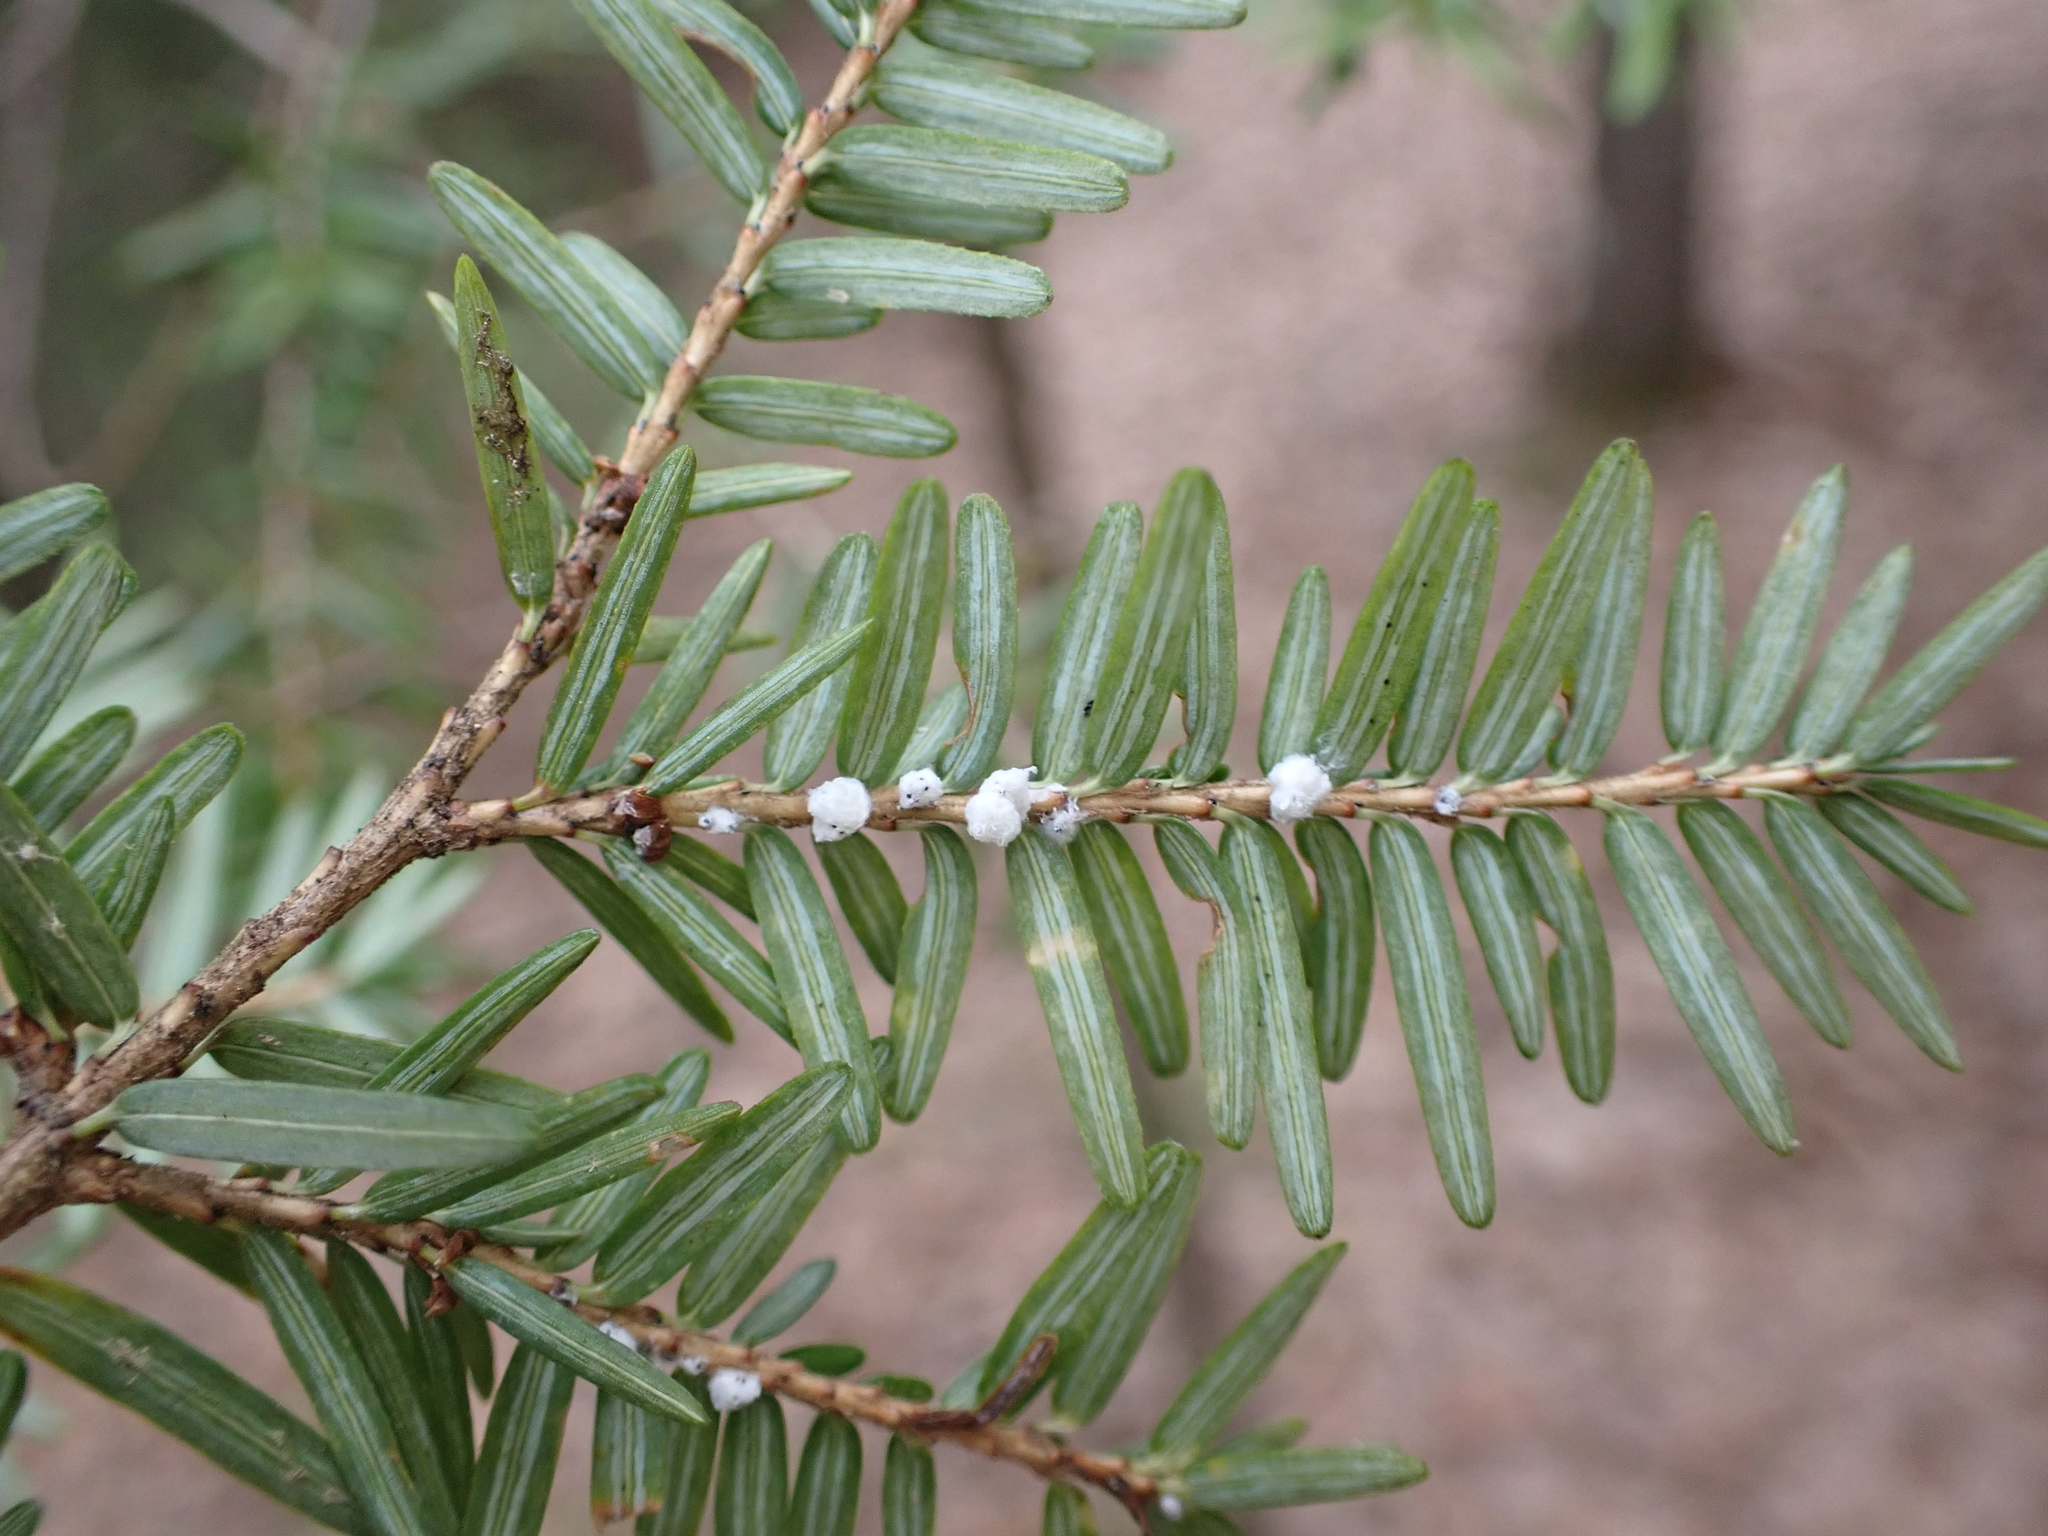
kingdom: Animalia
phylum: Arthropoda
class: Insecta
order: Hemiptera
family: Adelgidae
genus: Adelges
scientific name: Adelges tsugae
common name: Hemlock woolly adelgid
